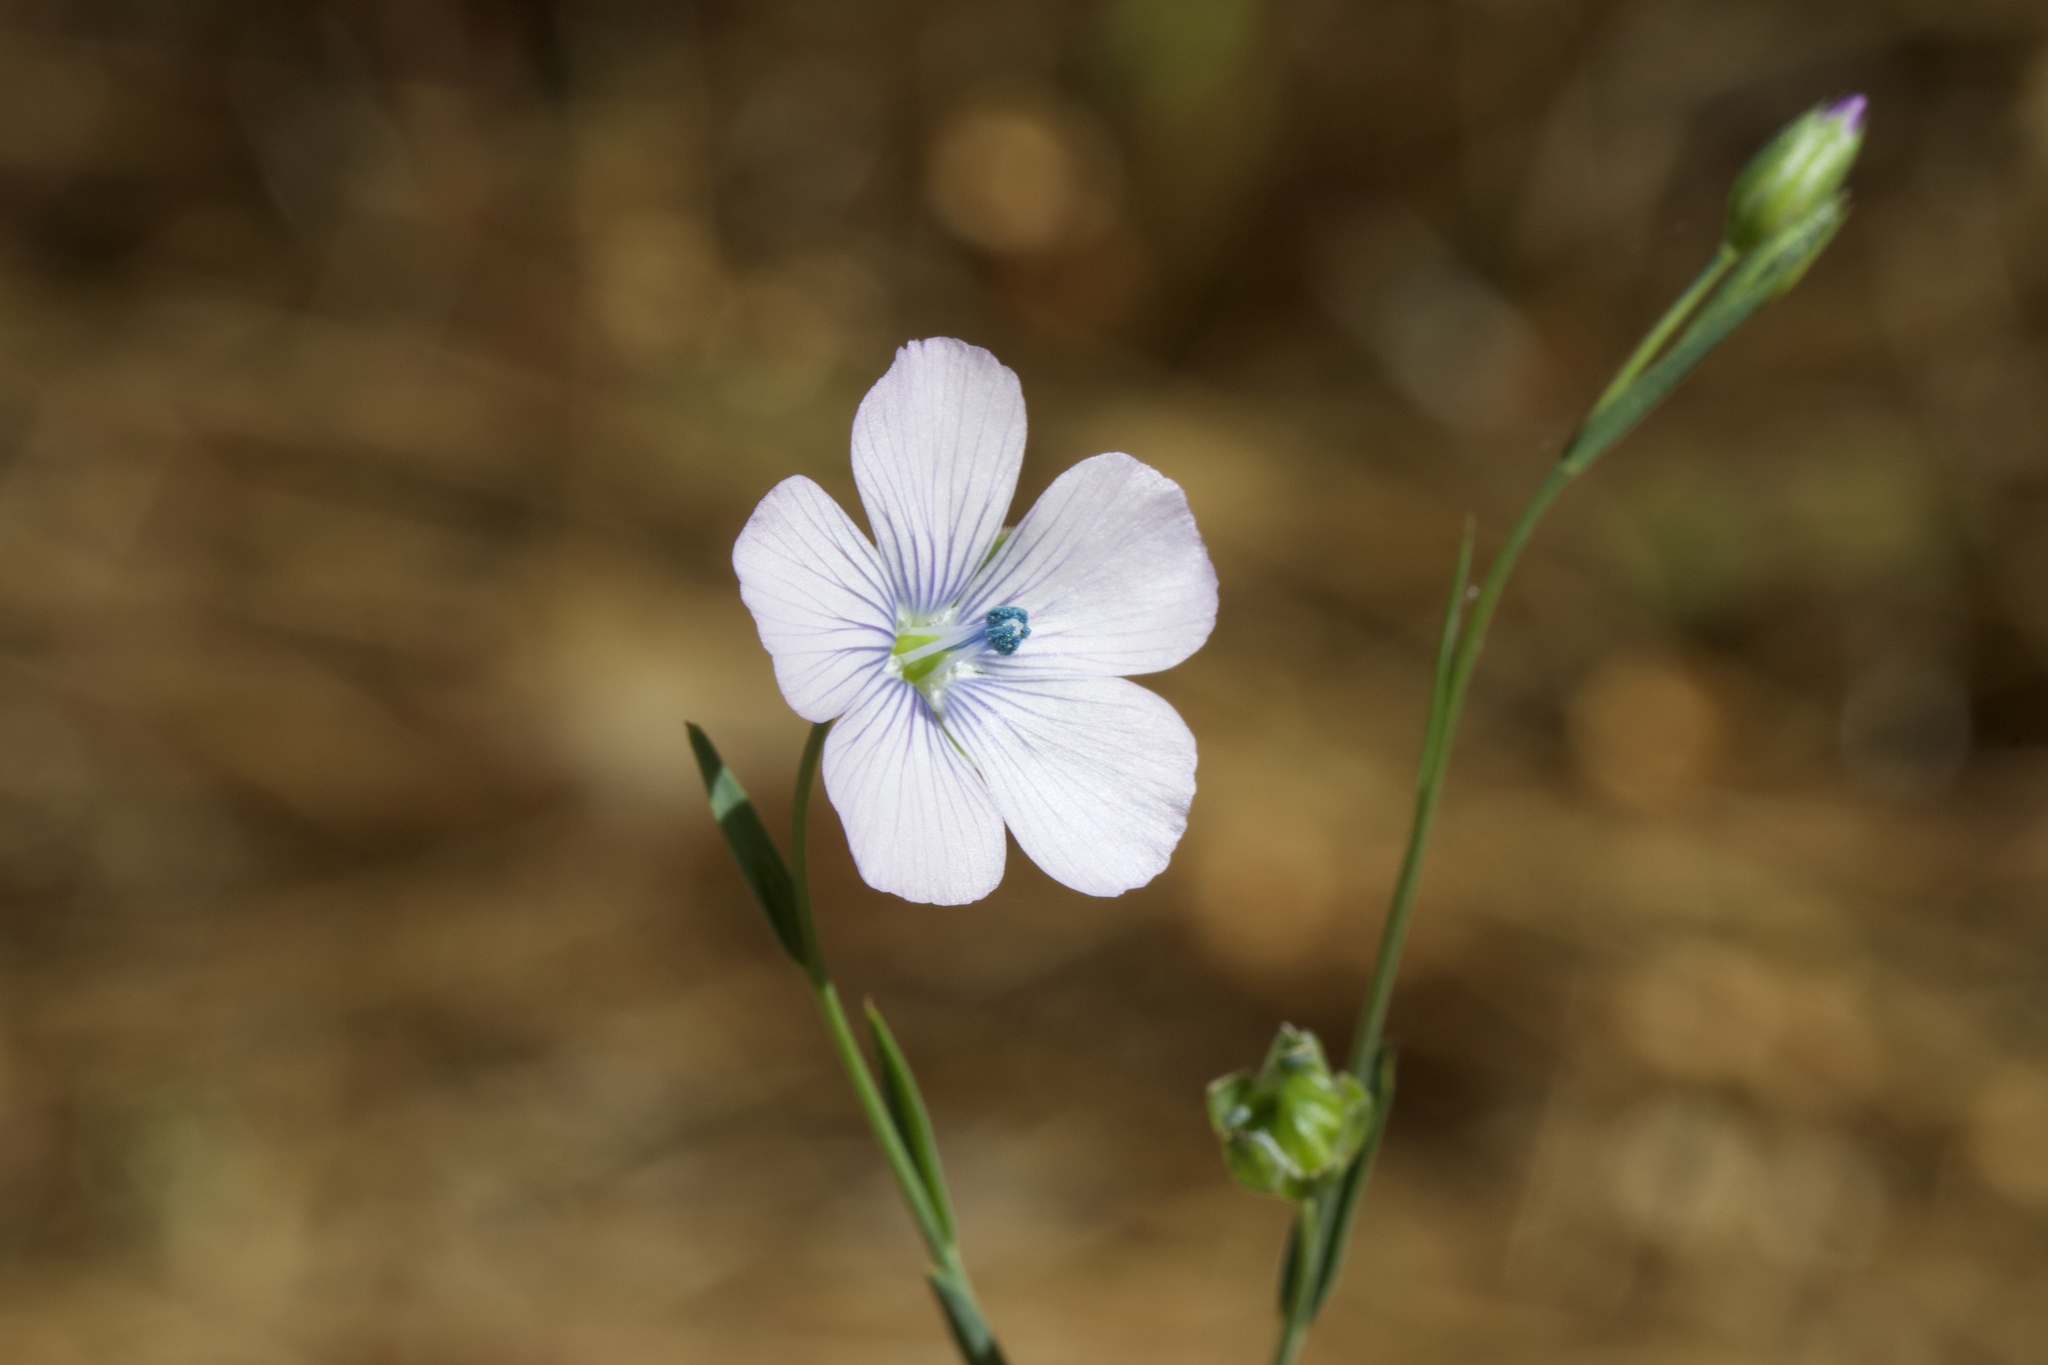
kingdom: Plantae
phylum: Tracheophyta
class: Magnoliopsida
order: Malpighiales
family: Linaceae
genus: Linum
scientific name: Linum bienne
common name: Pale flax
